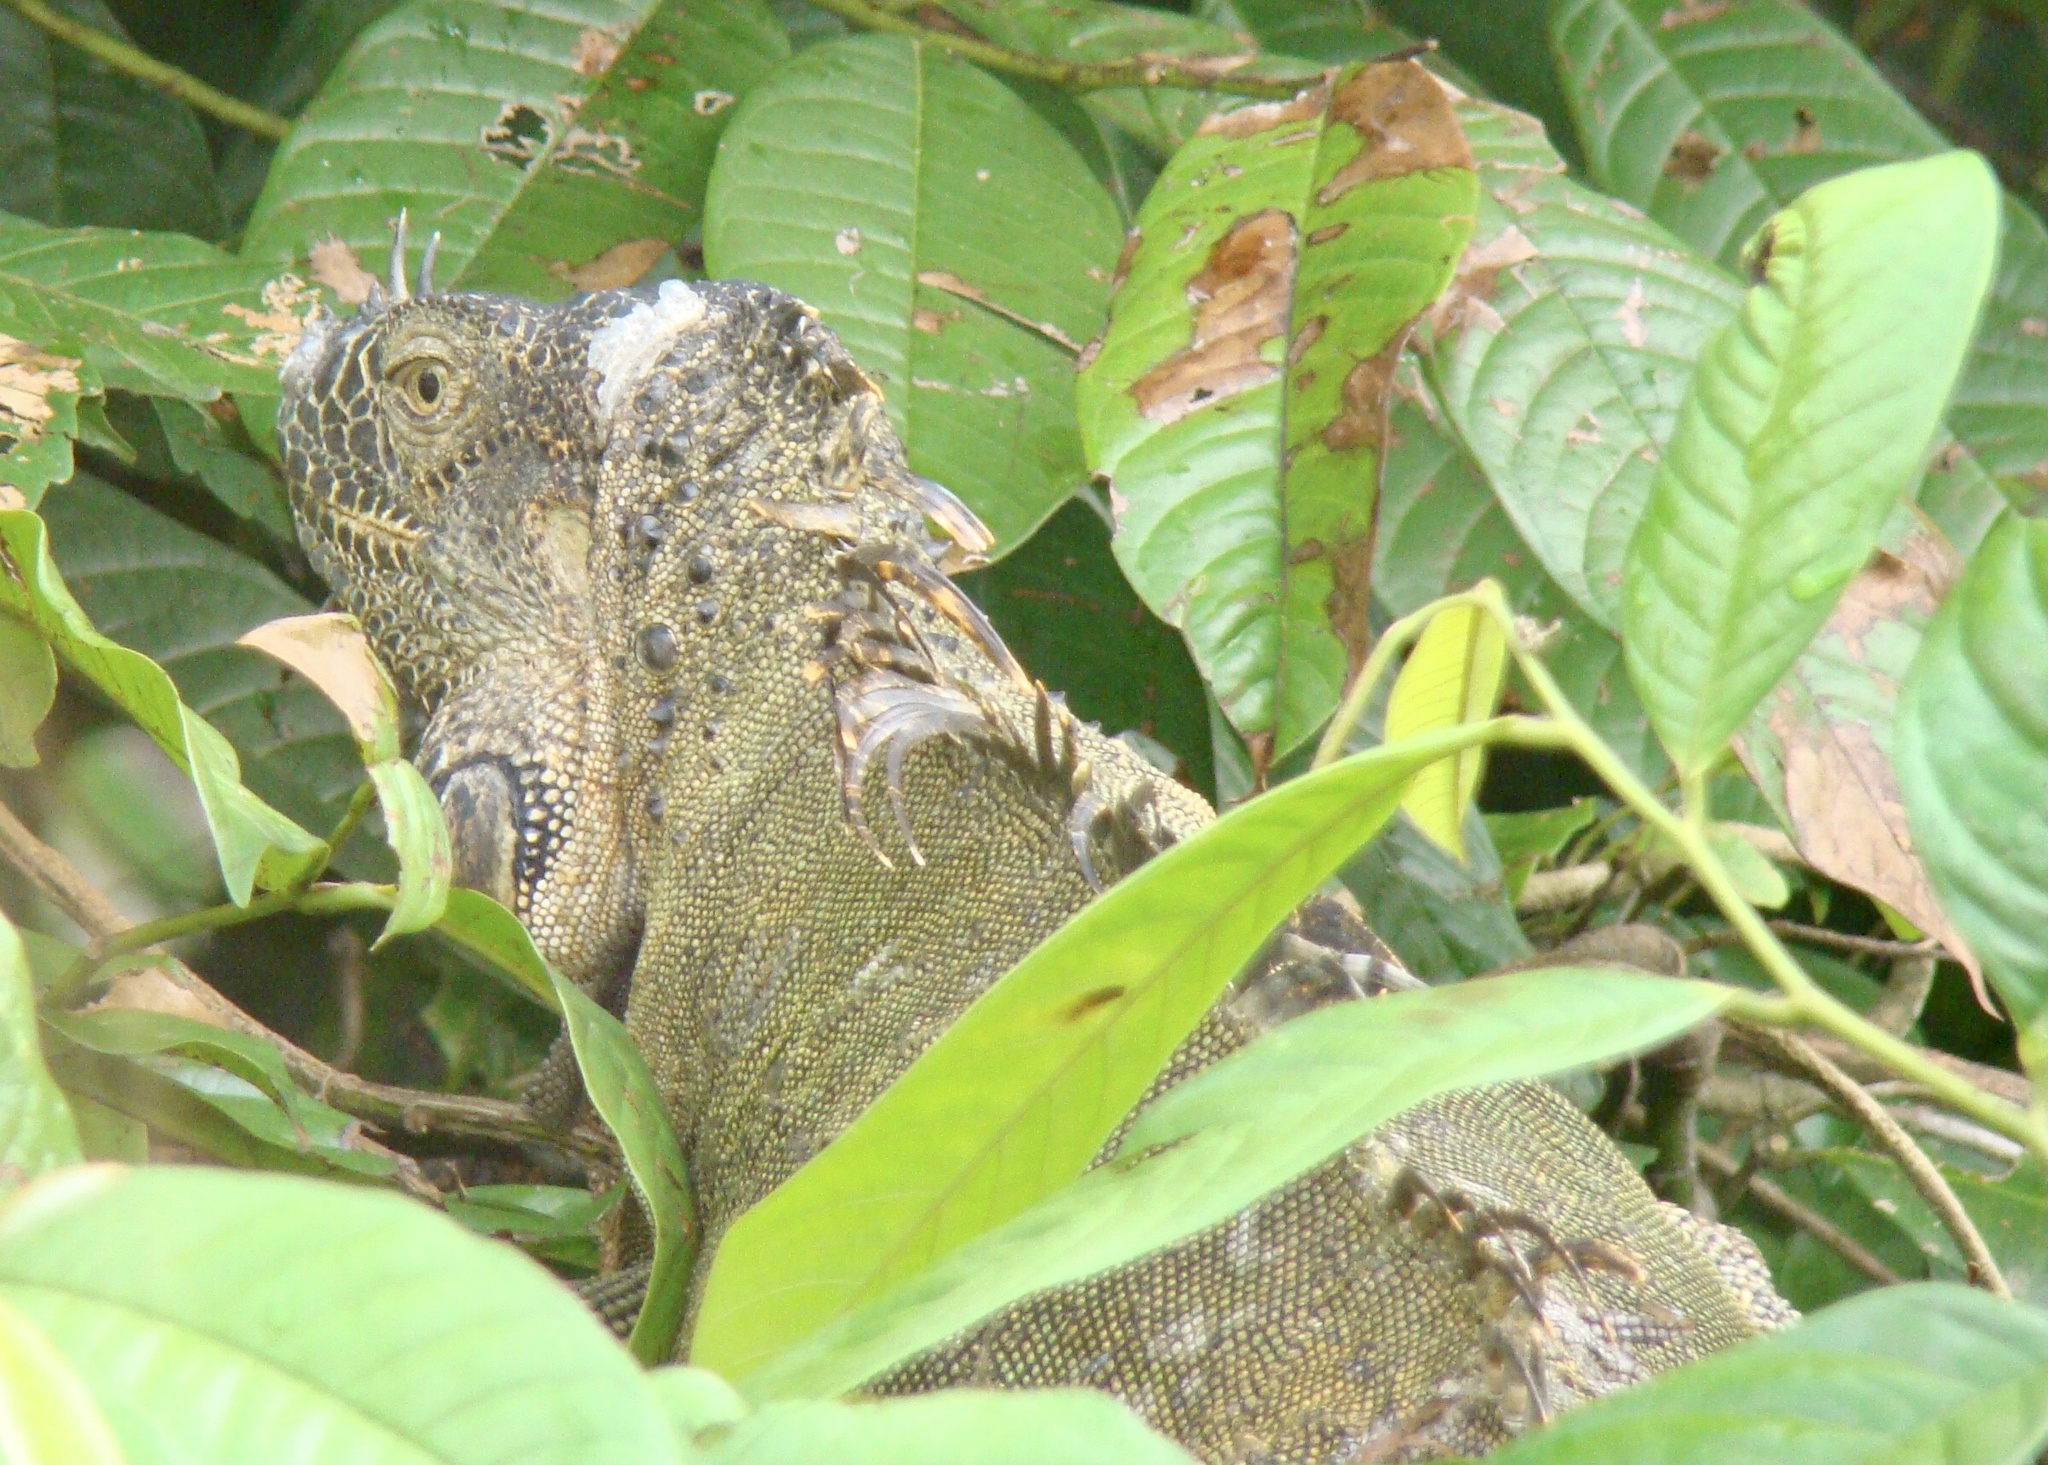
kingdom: Animalia
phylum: Chordata
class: Squamata
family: Iguanidae
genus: Iguana
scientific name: Iguana iguana
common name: Green iguana
